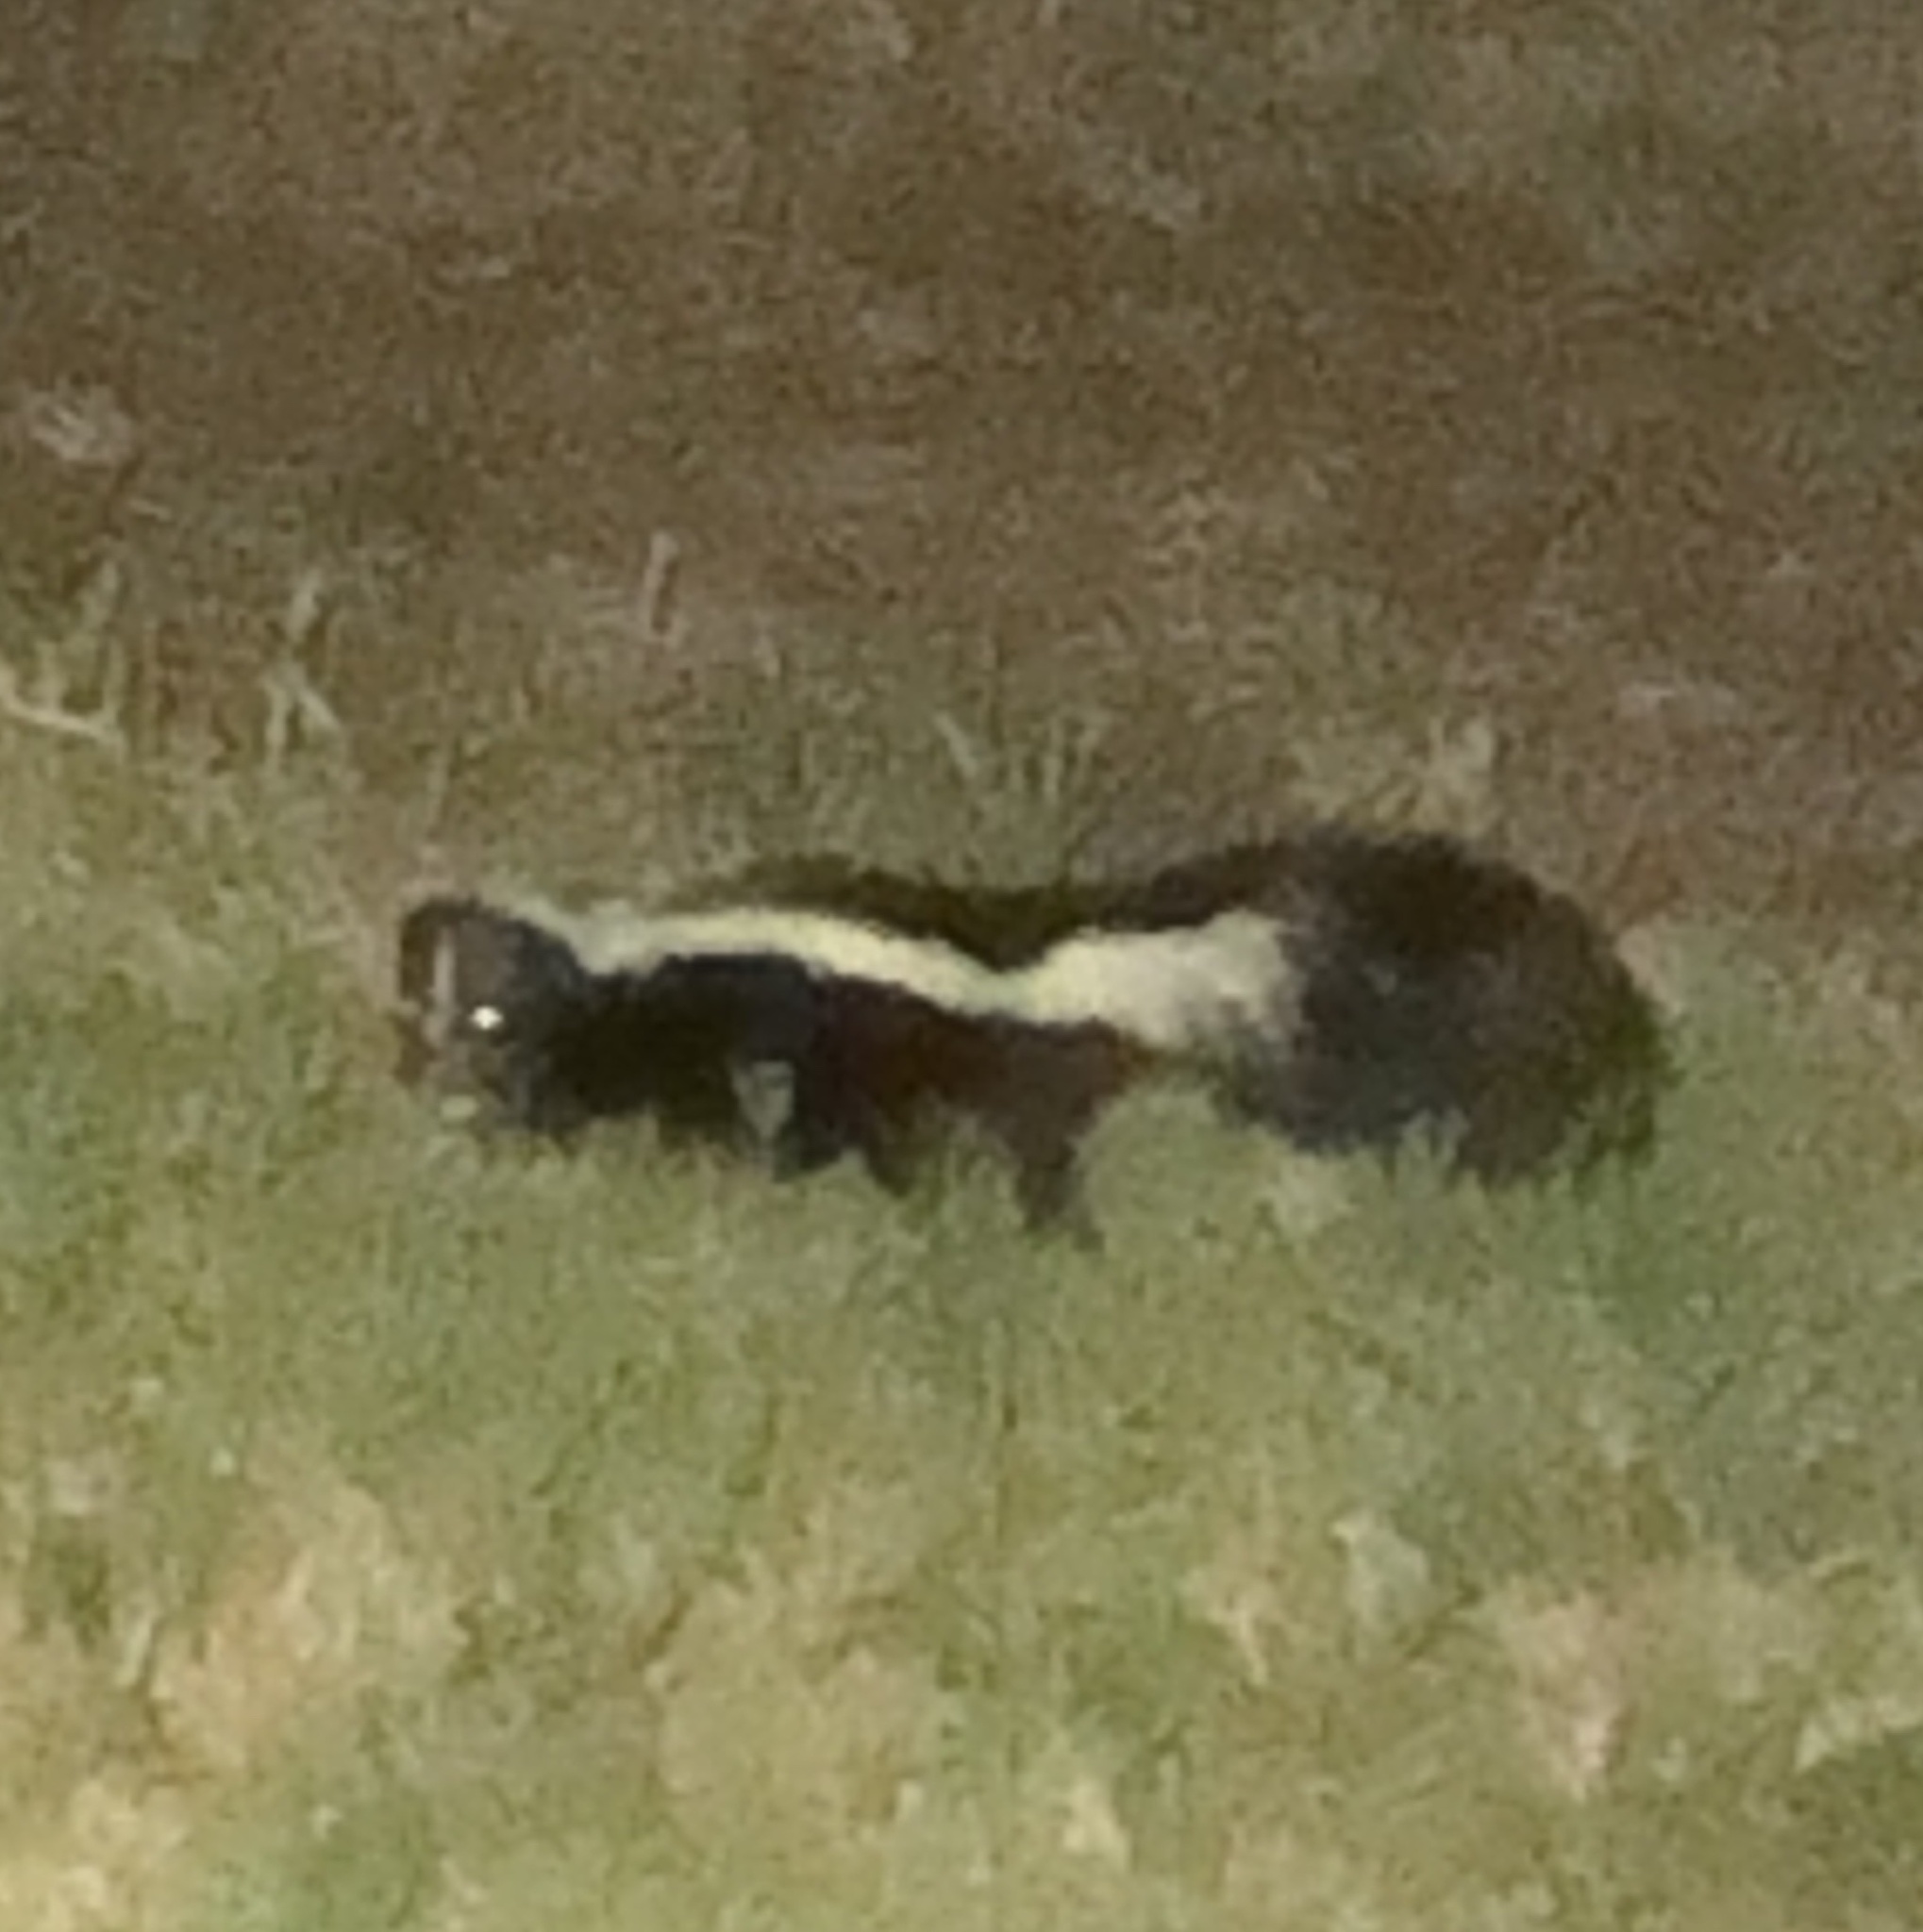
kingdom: Animalia
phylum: Chordata
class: Mammalia
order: Carnivora
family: Mephitidae
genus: Mephitis
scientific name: Mephitis mephitis
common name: Striped skunk
